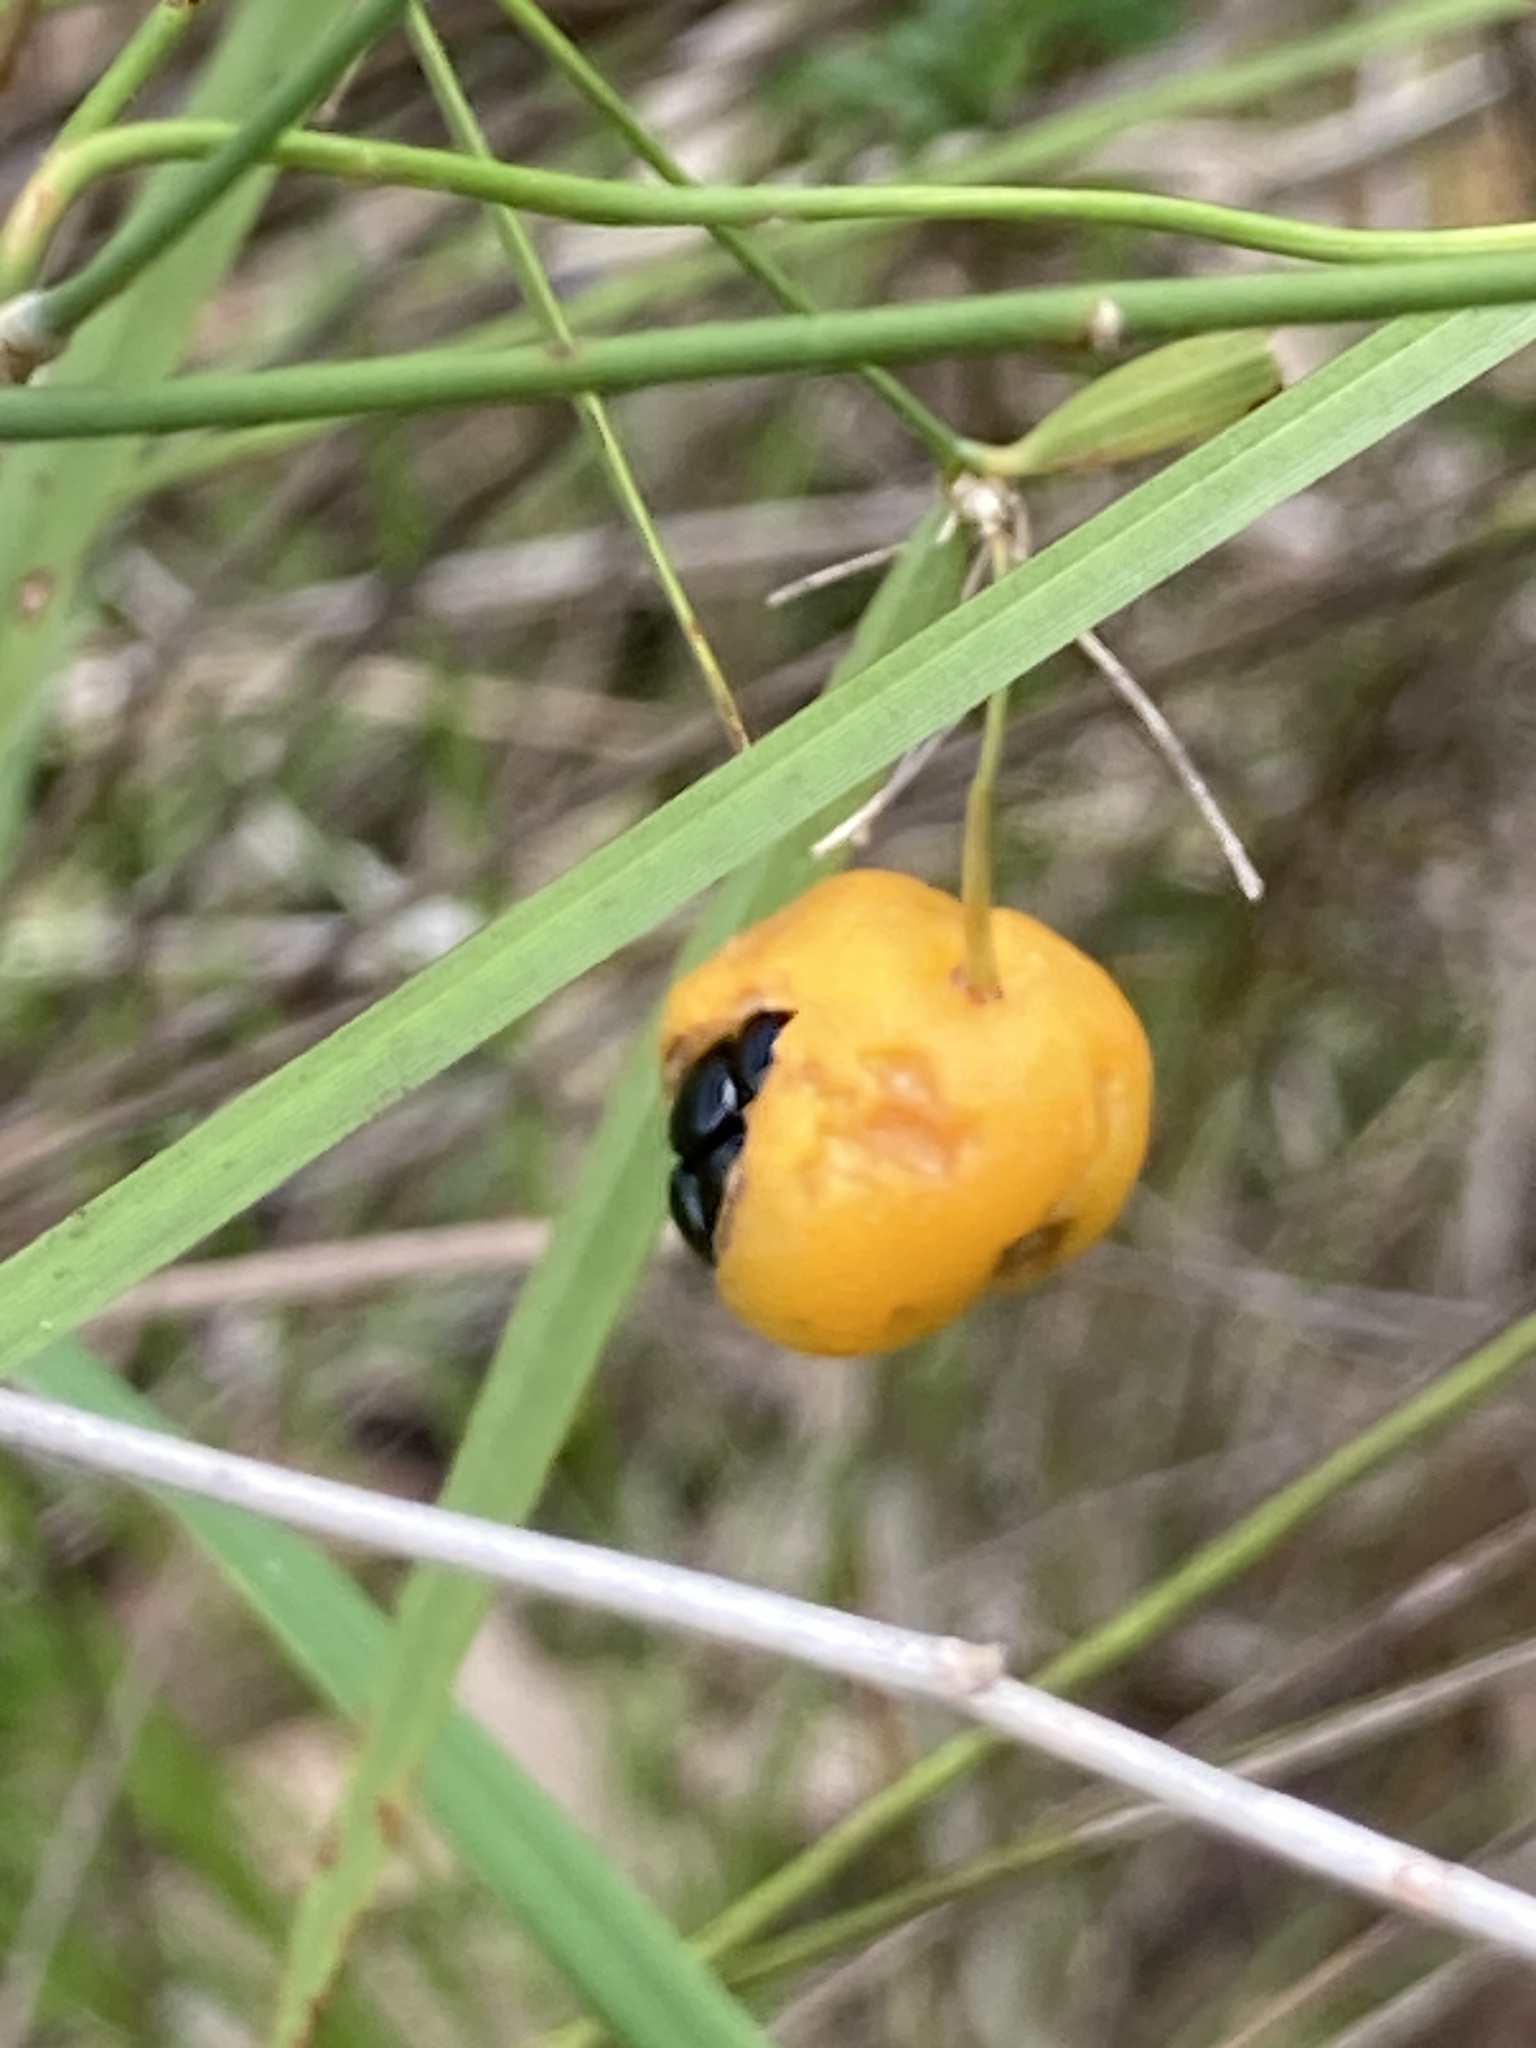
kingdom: Plantae
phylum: Tracheophyta
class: Liliopsida
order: Asparagales
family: Asparagaceae
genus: Eustrephus
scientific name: Eustrephus latifolius
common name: Orangevine
